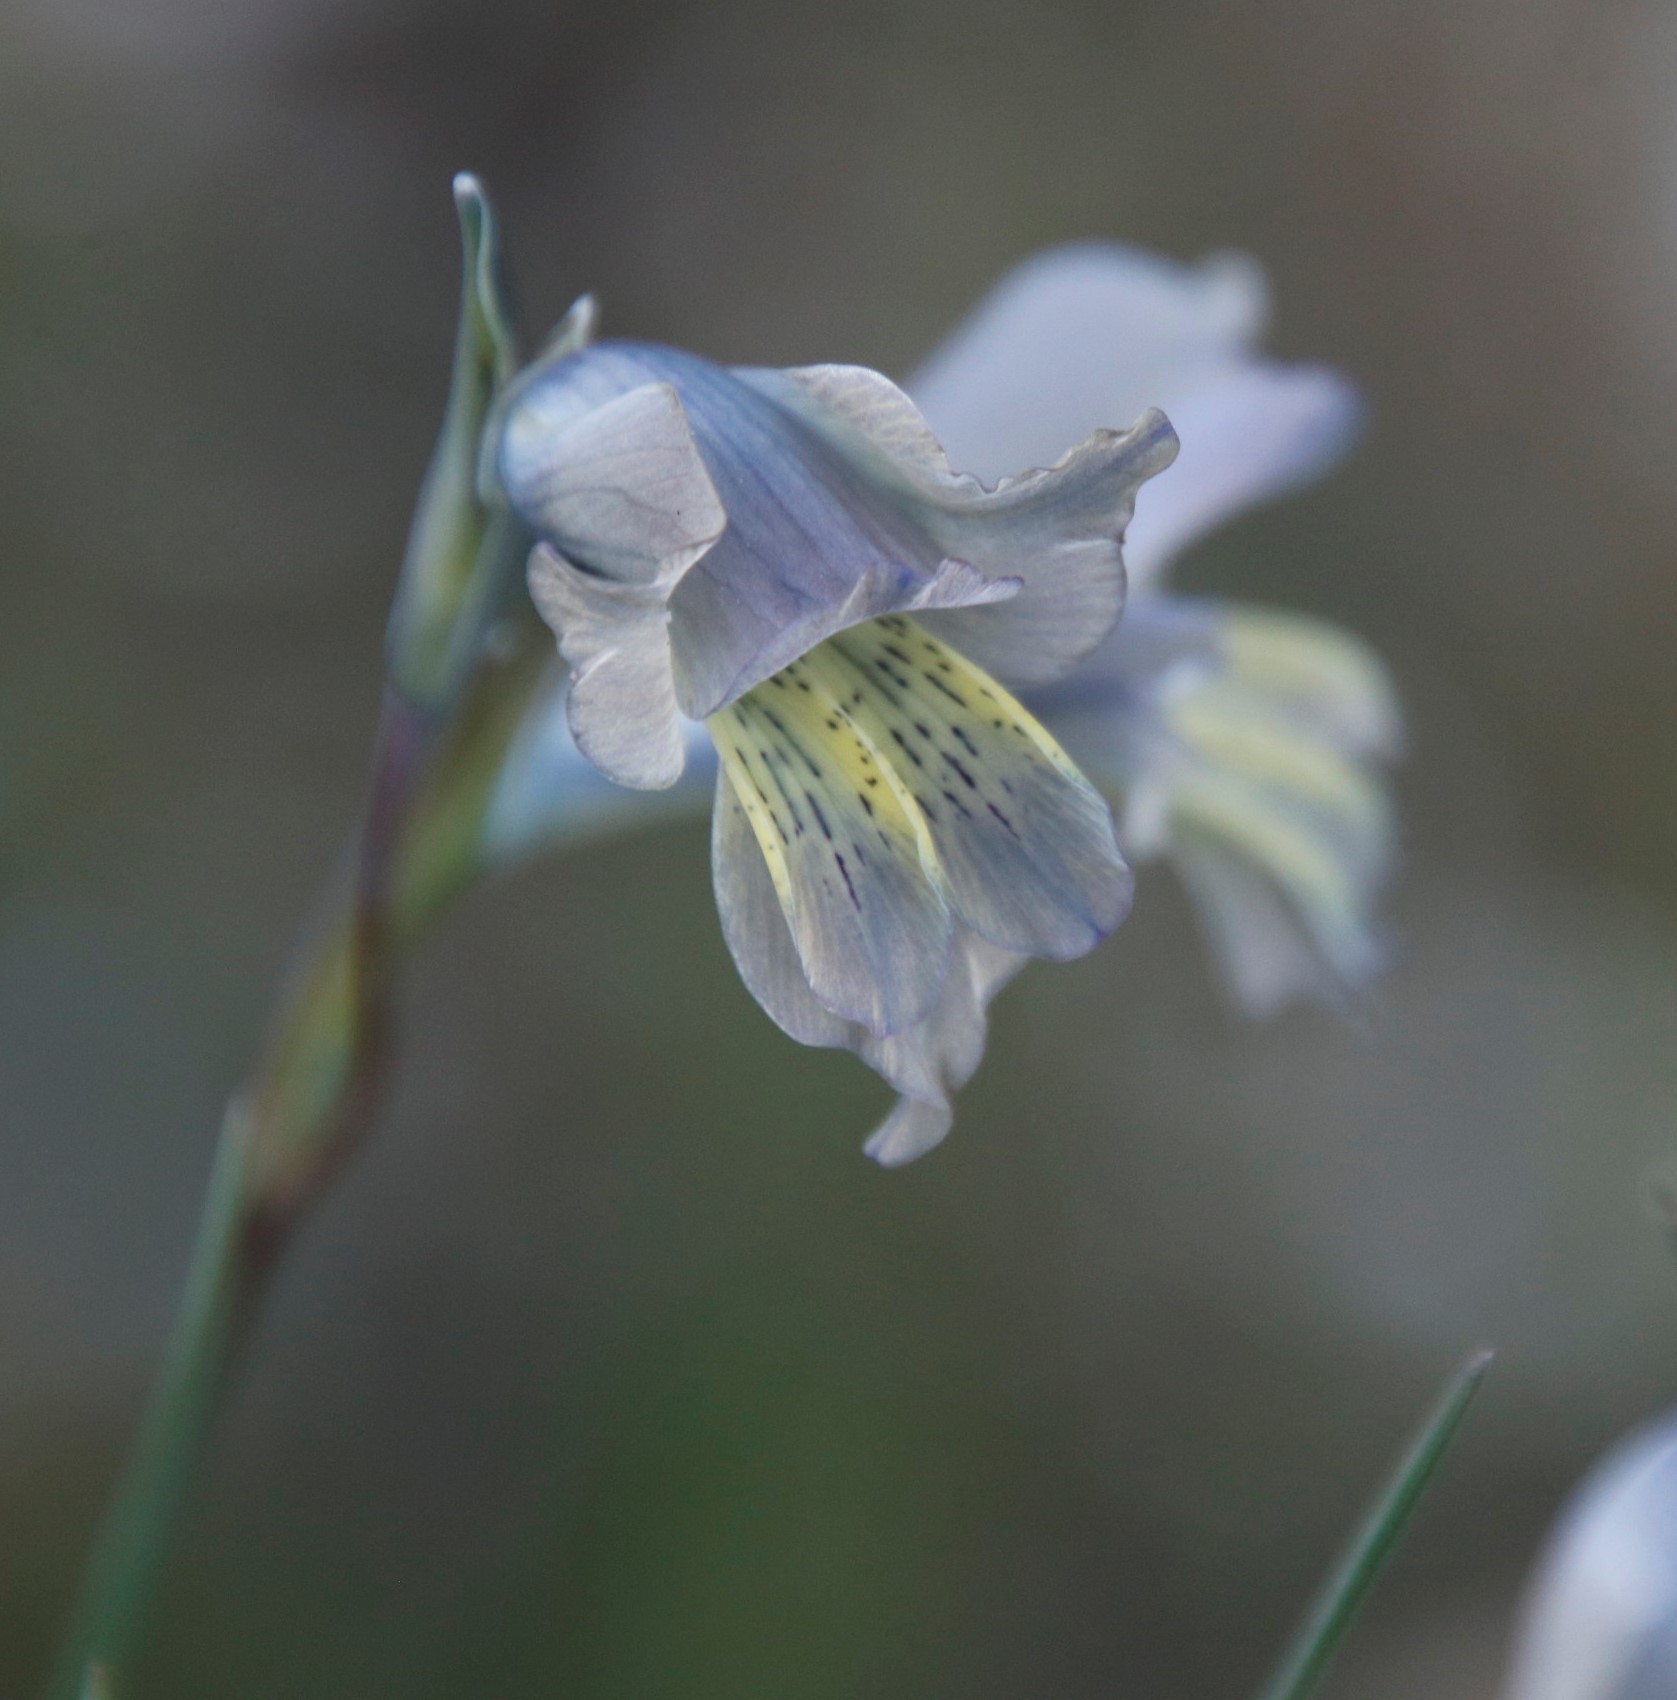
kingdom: Plantae
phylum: Tracheophyta
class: Liliopsida
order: Asparagales
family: Iridaceae
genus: Gladiolus
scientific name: Gladiolus gracilis
